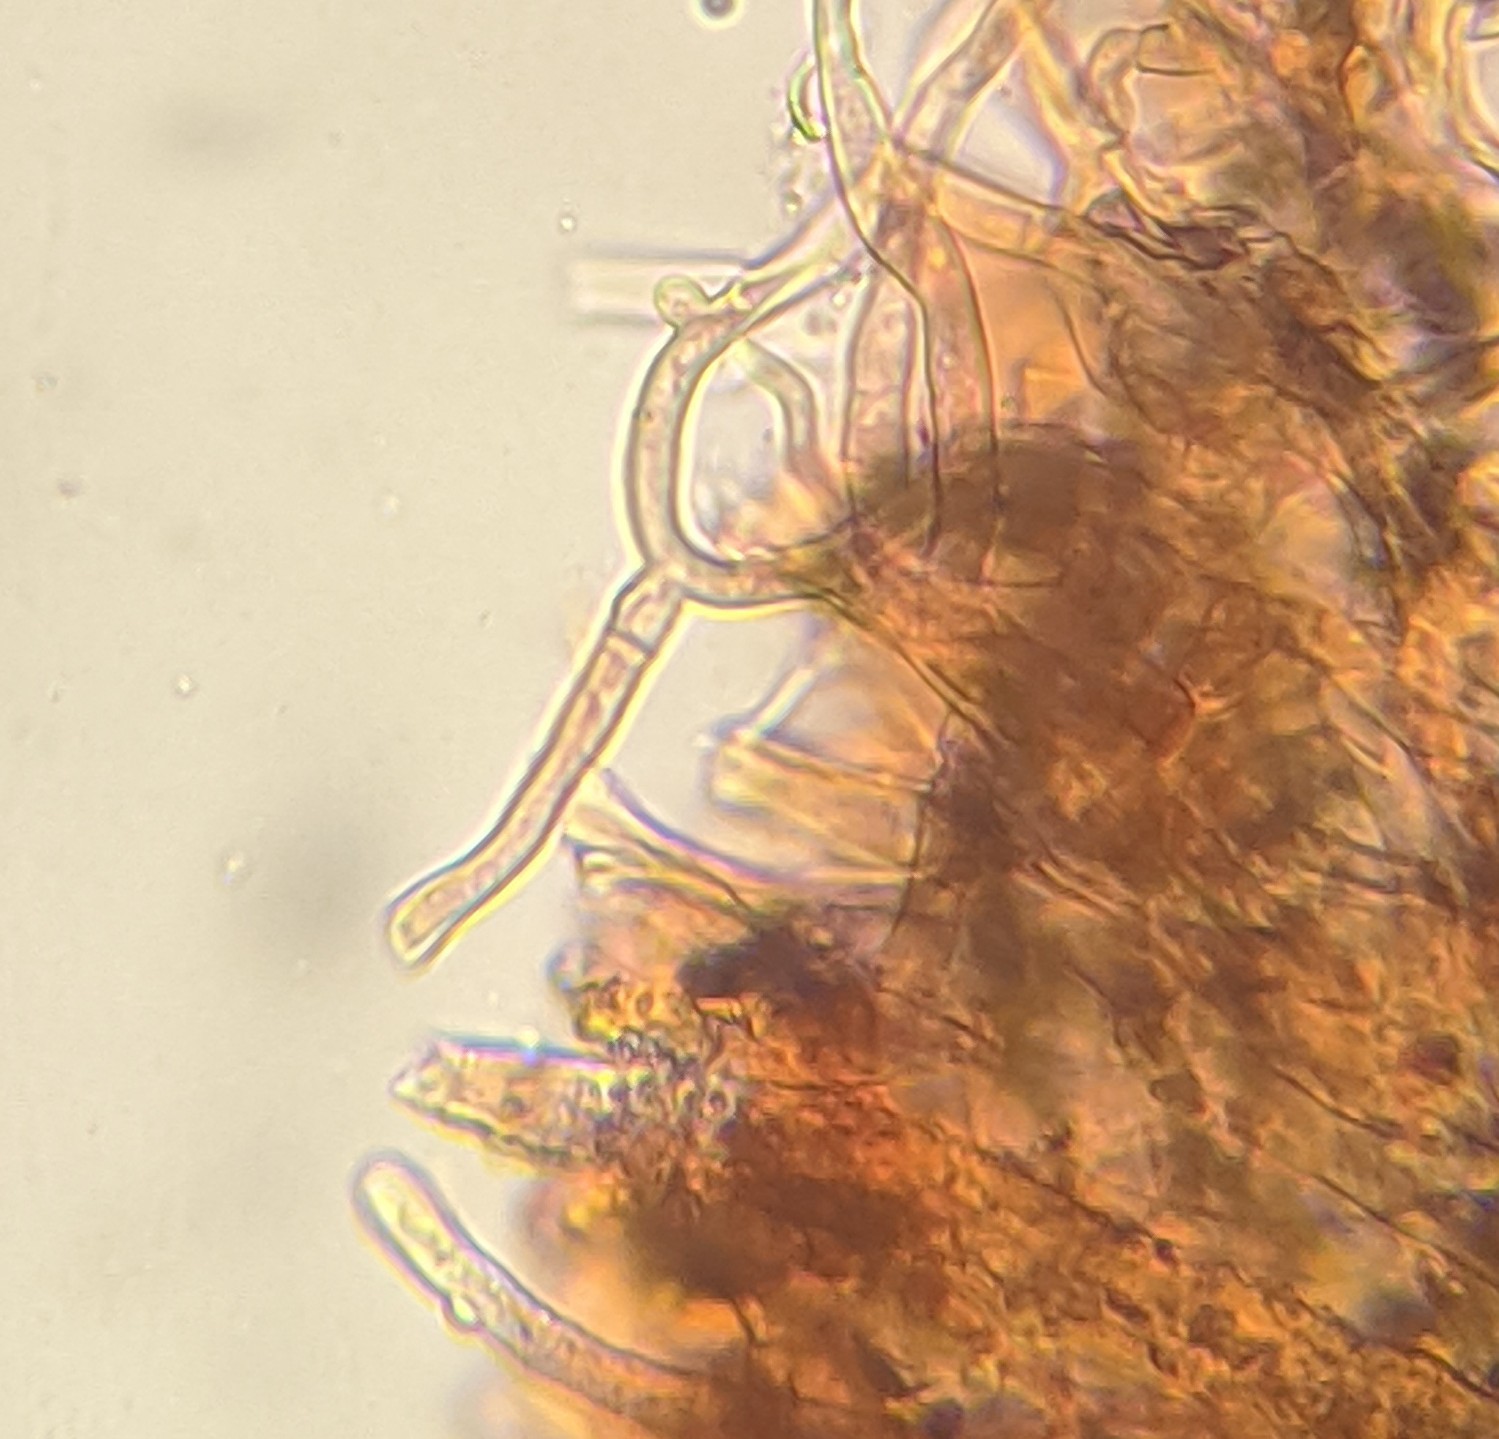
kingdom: Fungi
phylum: Basidiomycota
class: Agaricomycetes
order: Polyporales
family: Phanerochaetaceae
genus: Phlebiopsis
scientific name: Phlebiopsis crassa
